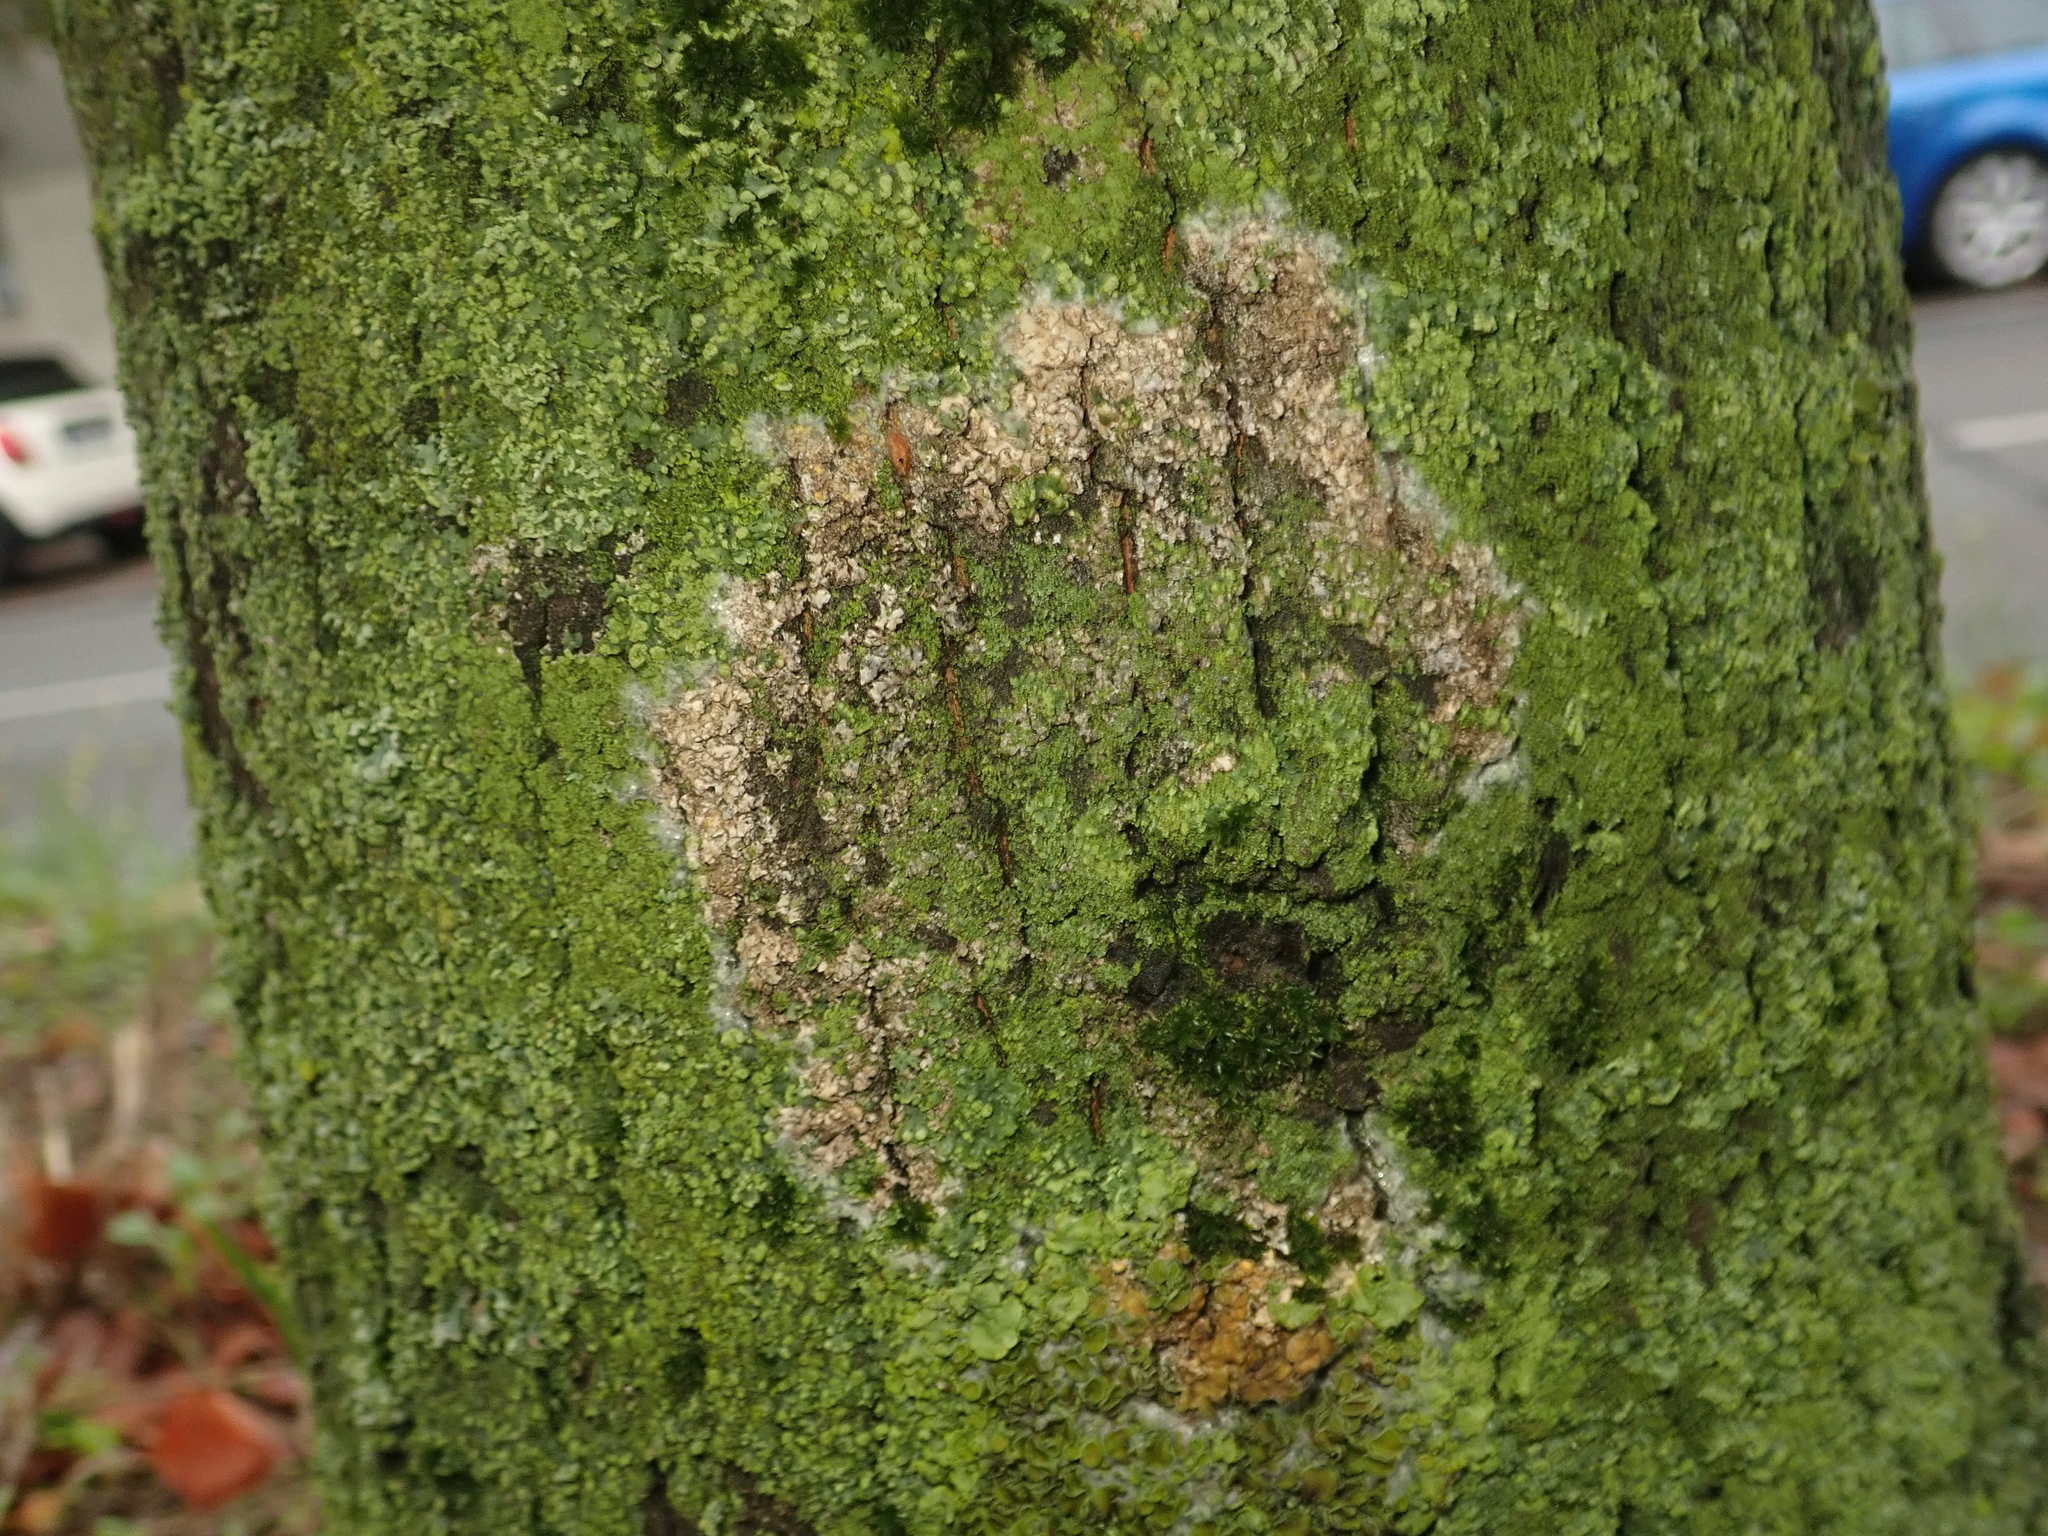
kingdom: Fungi
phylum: Basidiomycota
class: Agaricomycetes
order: Atheliales
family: Atheliaceae
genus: Athelia
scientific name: Athelia arachnoidea
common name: Candelabra duster
